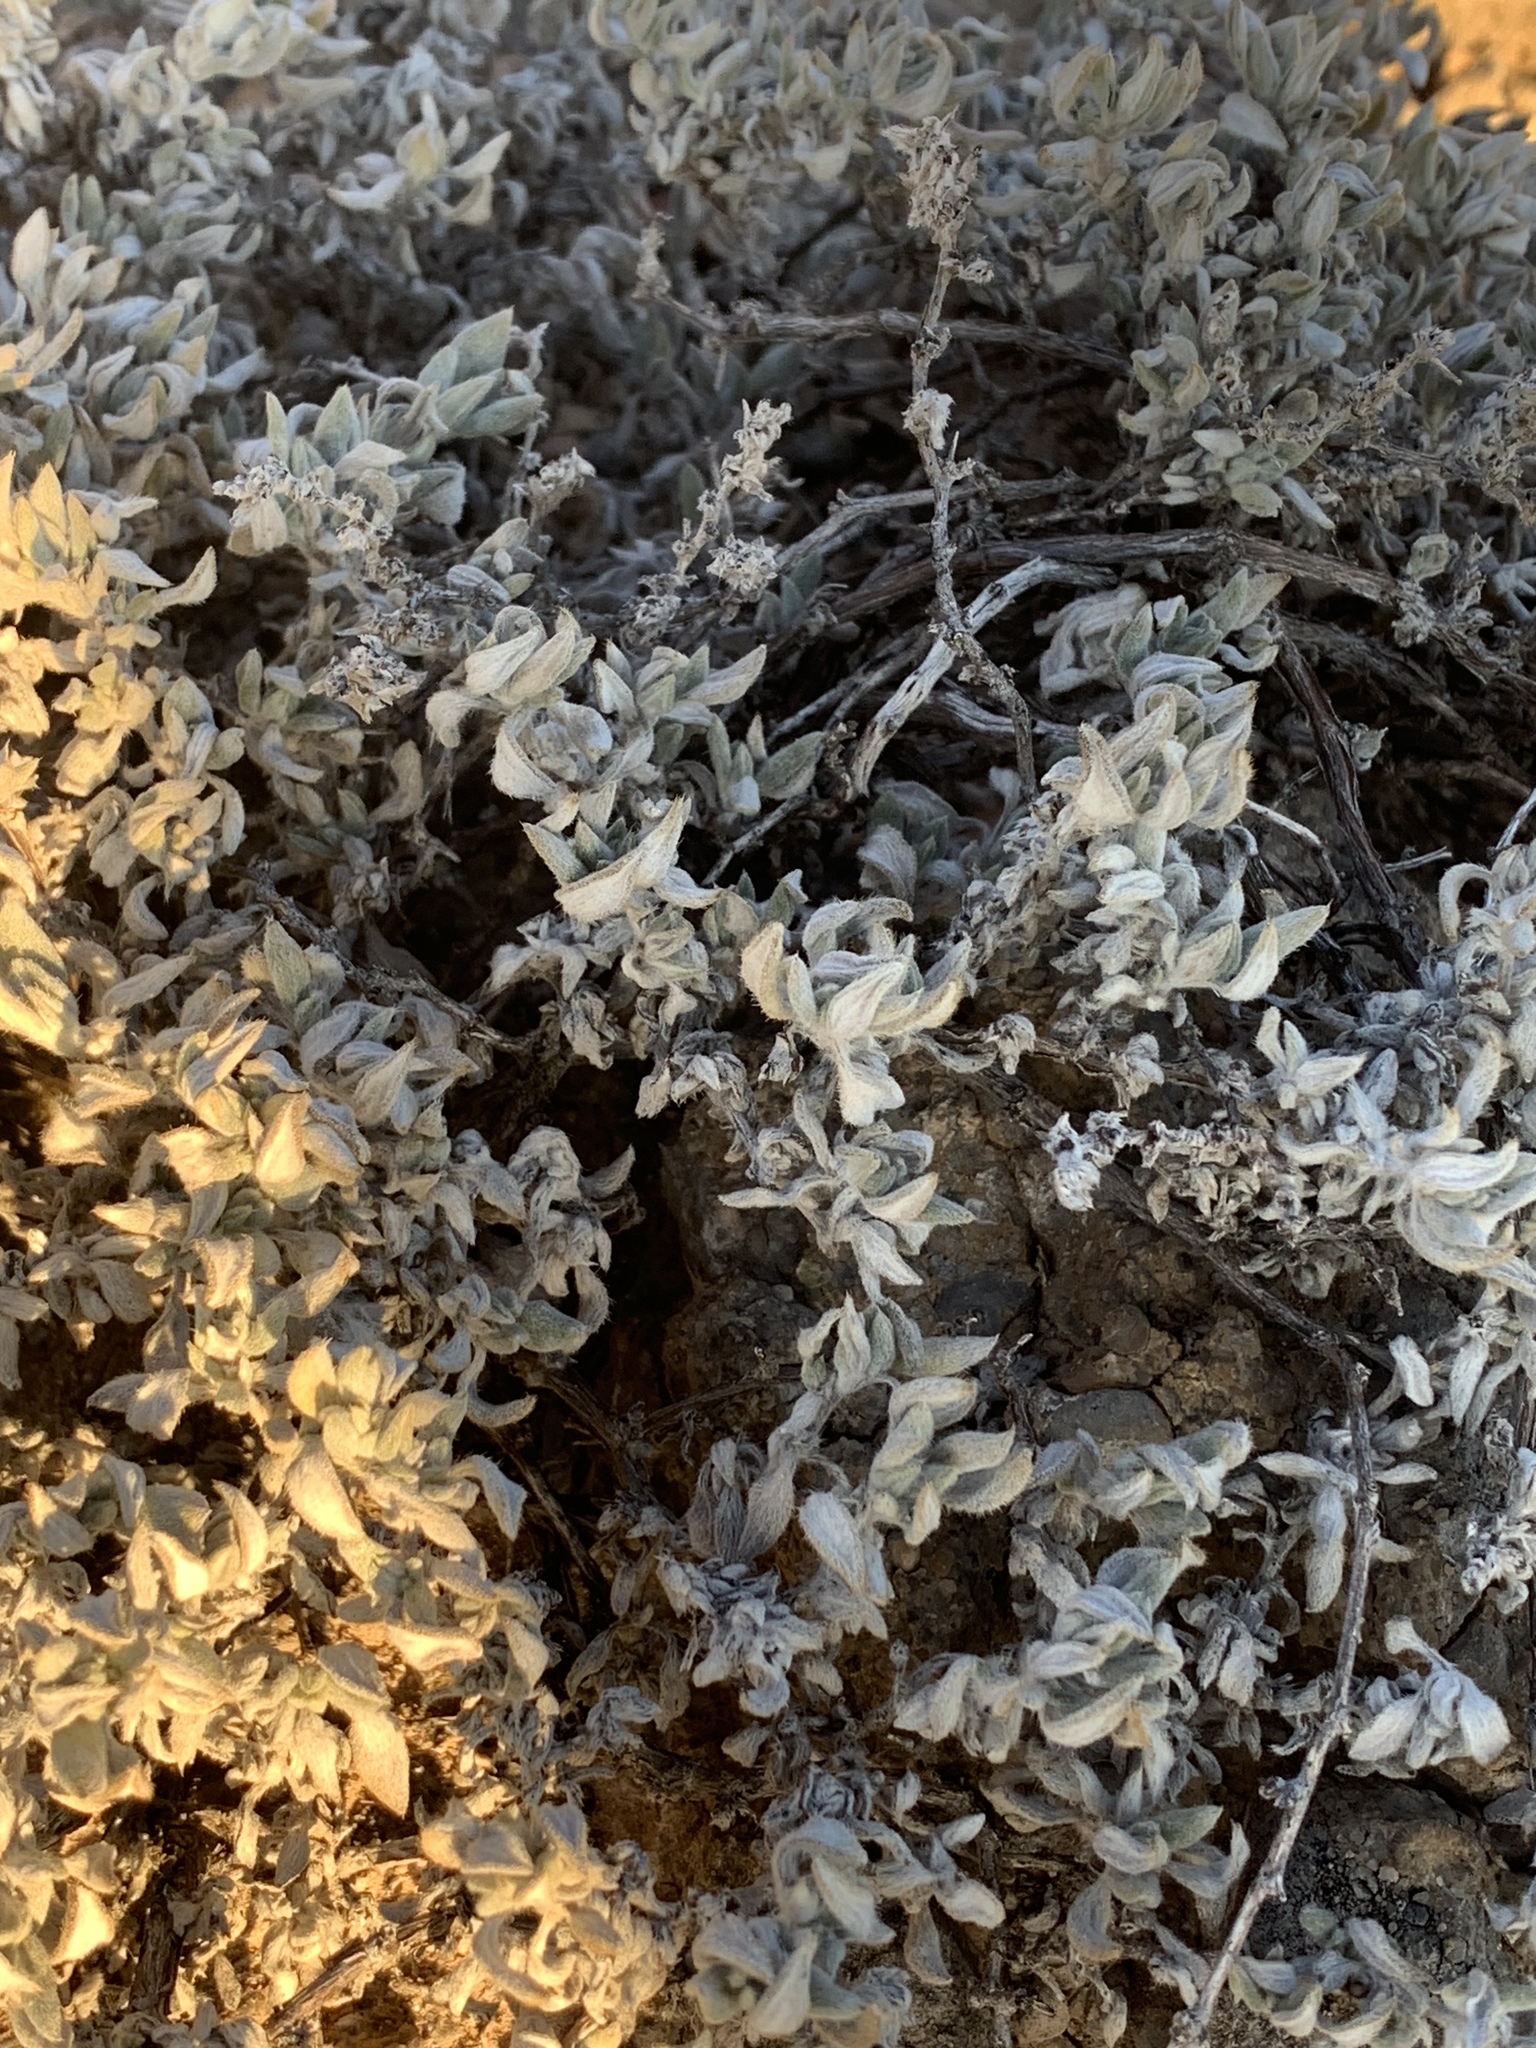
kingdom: Plantae
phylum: Tracheophyta
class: Magnoliopsida
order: Boraginales
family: Ehretiaceae
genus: Tiquilia
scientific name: Tiquilia canescens
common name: Hairy tiquilia
